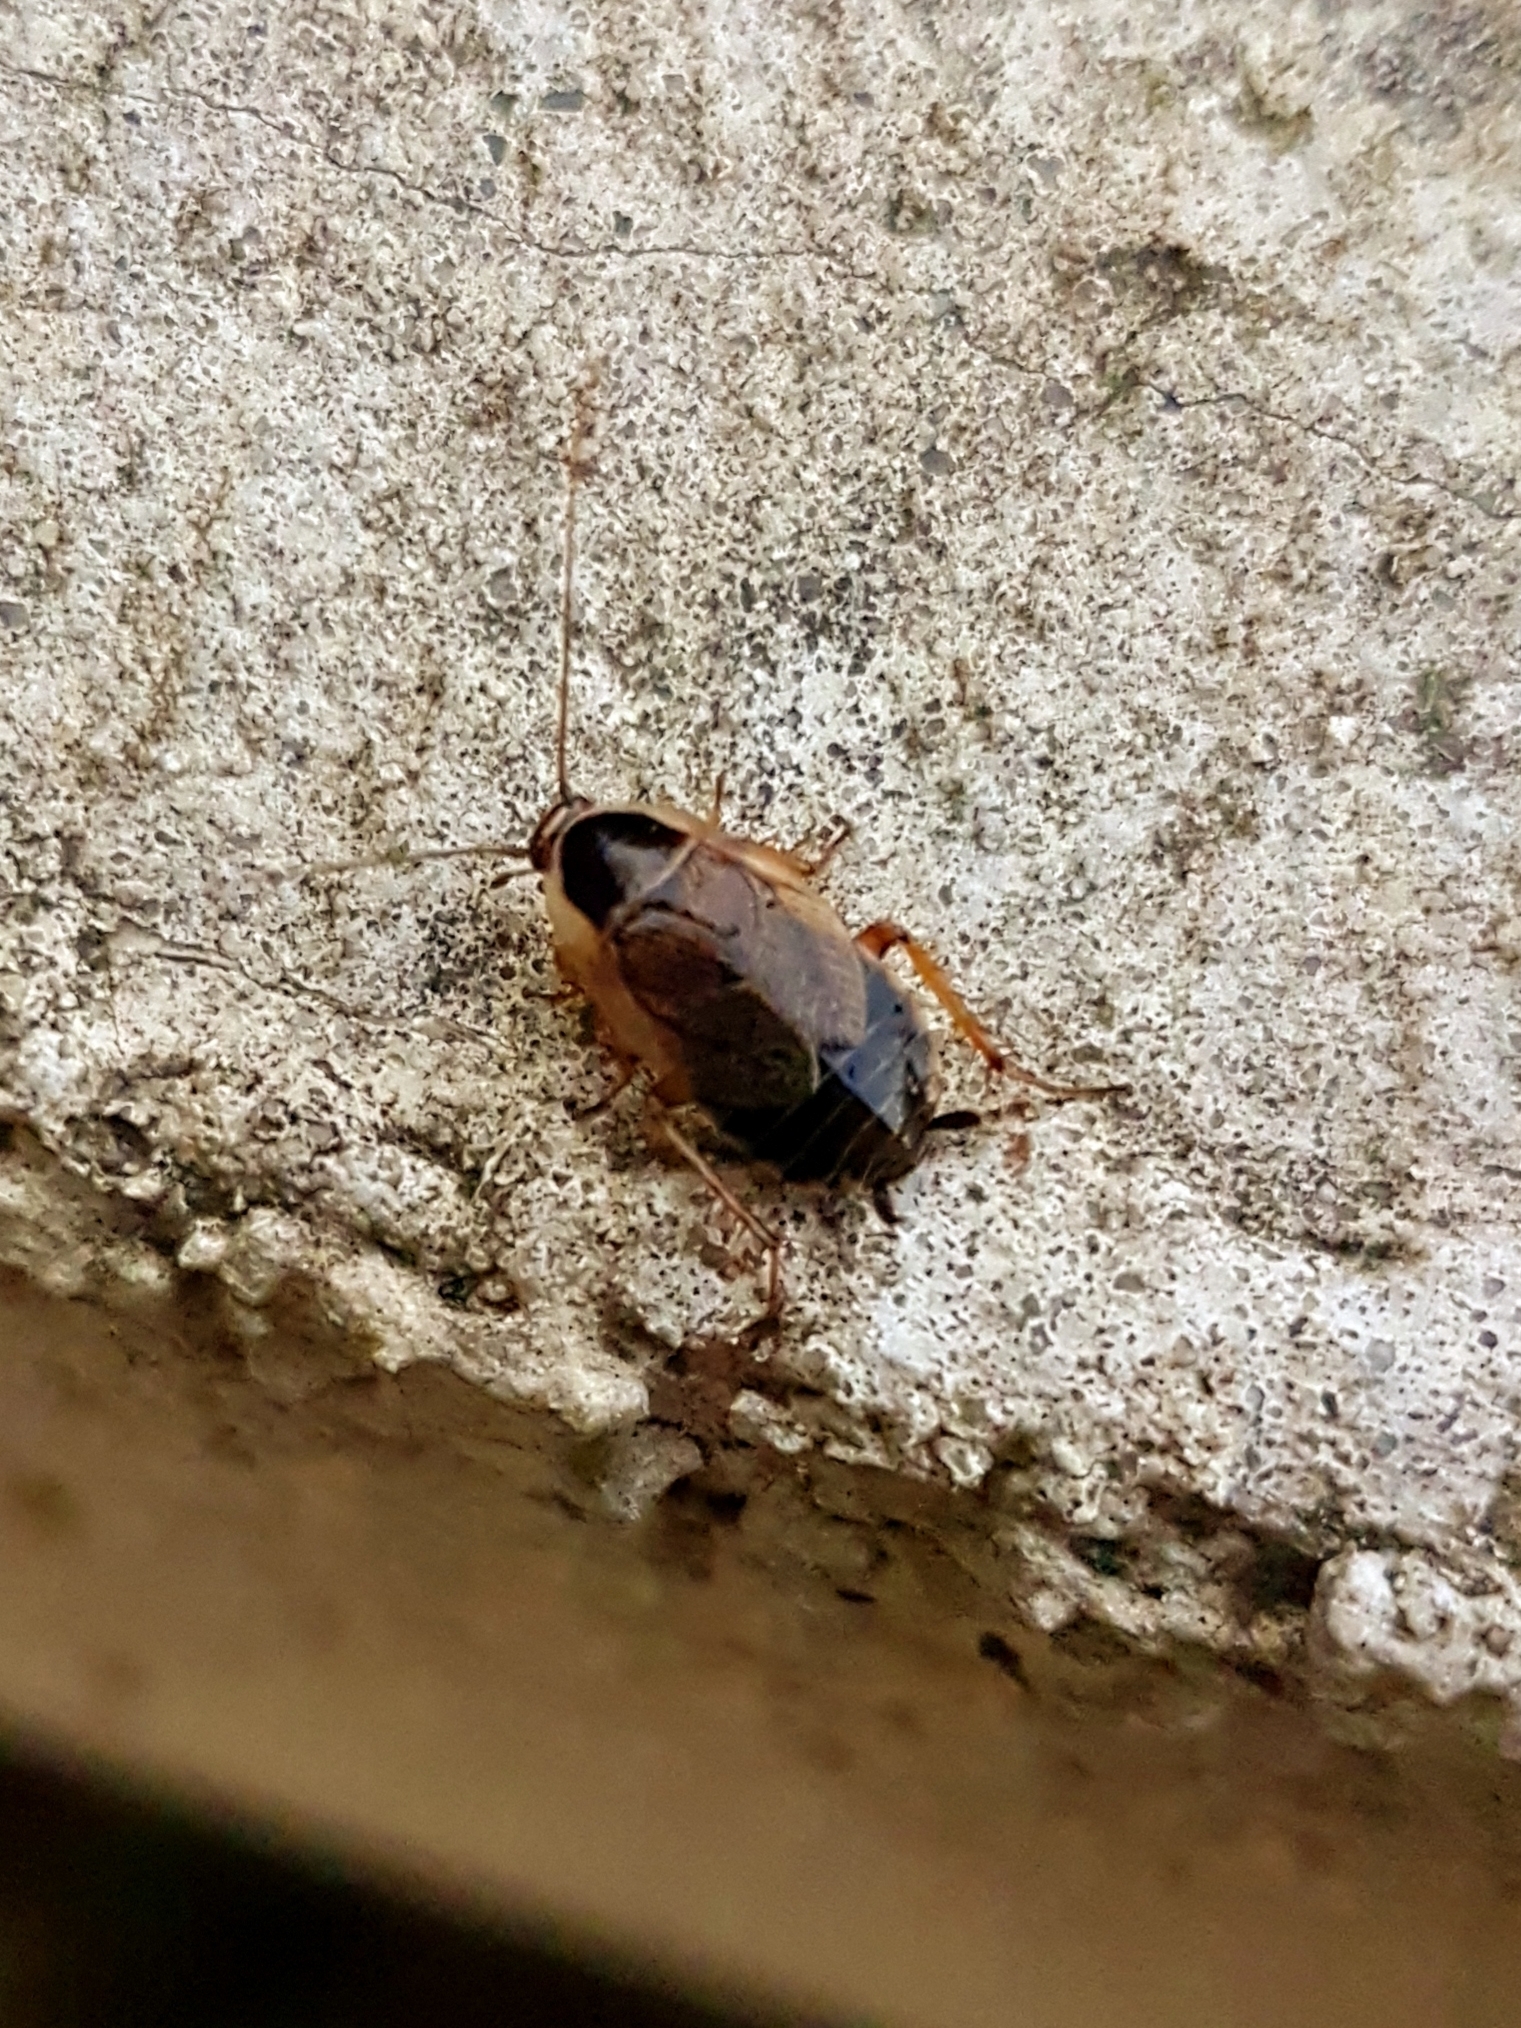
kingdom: Animalia
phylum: Arthropoda
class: Insecta
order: Blattodea
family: Ectobiidae
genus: Ectobius
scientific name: Ectobius sylvestris
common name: Forest cockroach
